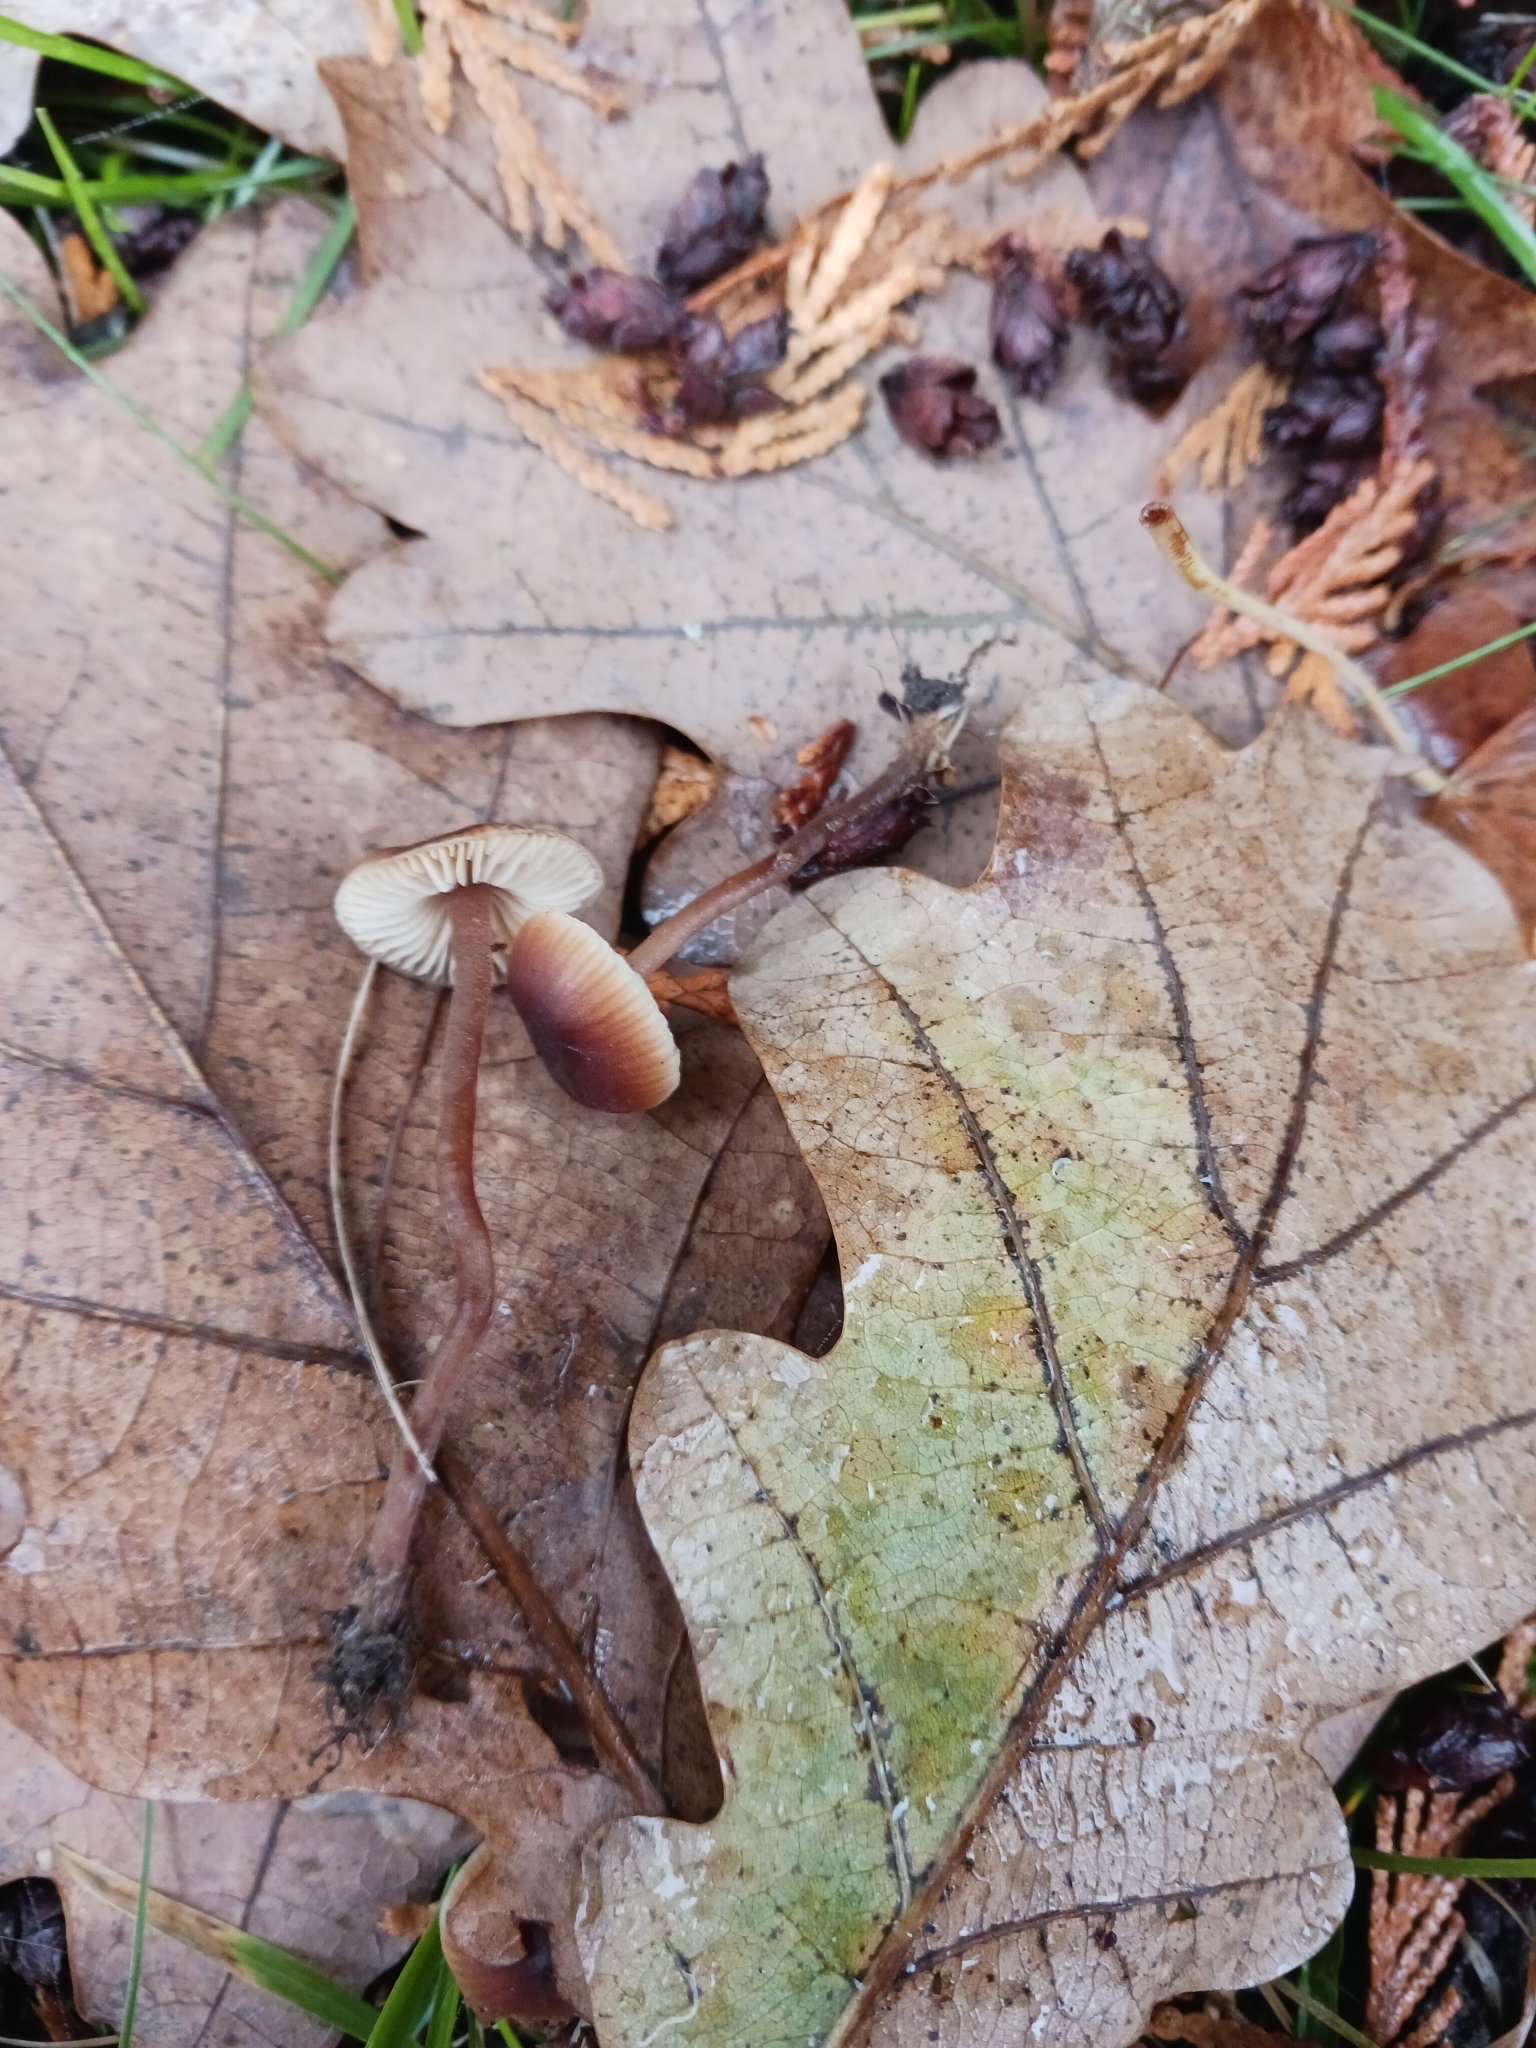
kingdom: Fungi
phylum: Basidiomycota
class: Agaricomycetes
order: Agaricales
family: Macrocystidiaceae
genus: Macrocystidia
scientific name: Macrocystidia cucumis
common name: Cucumber cap
